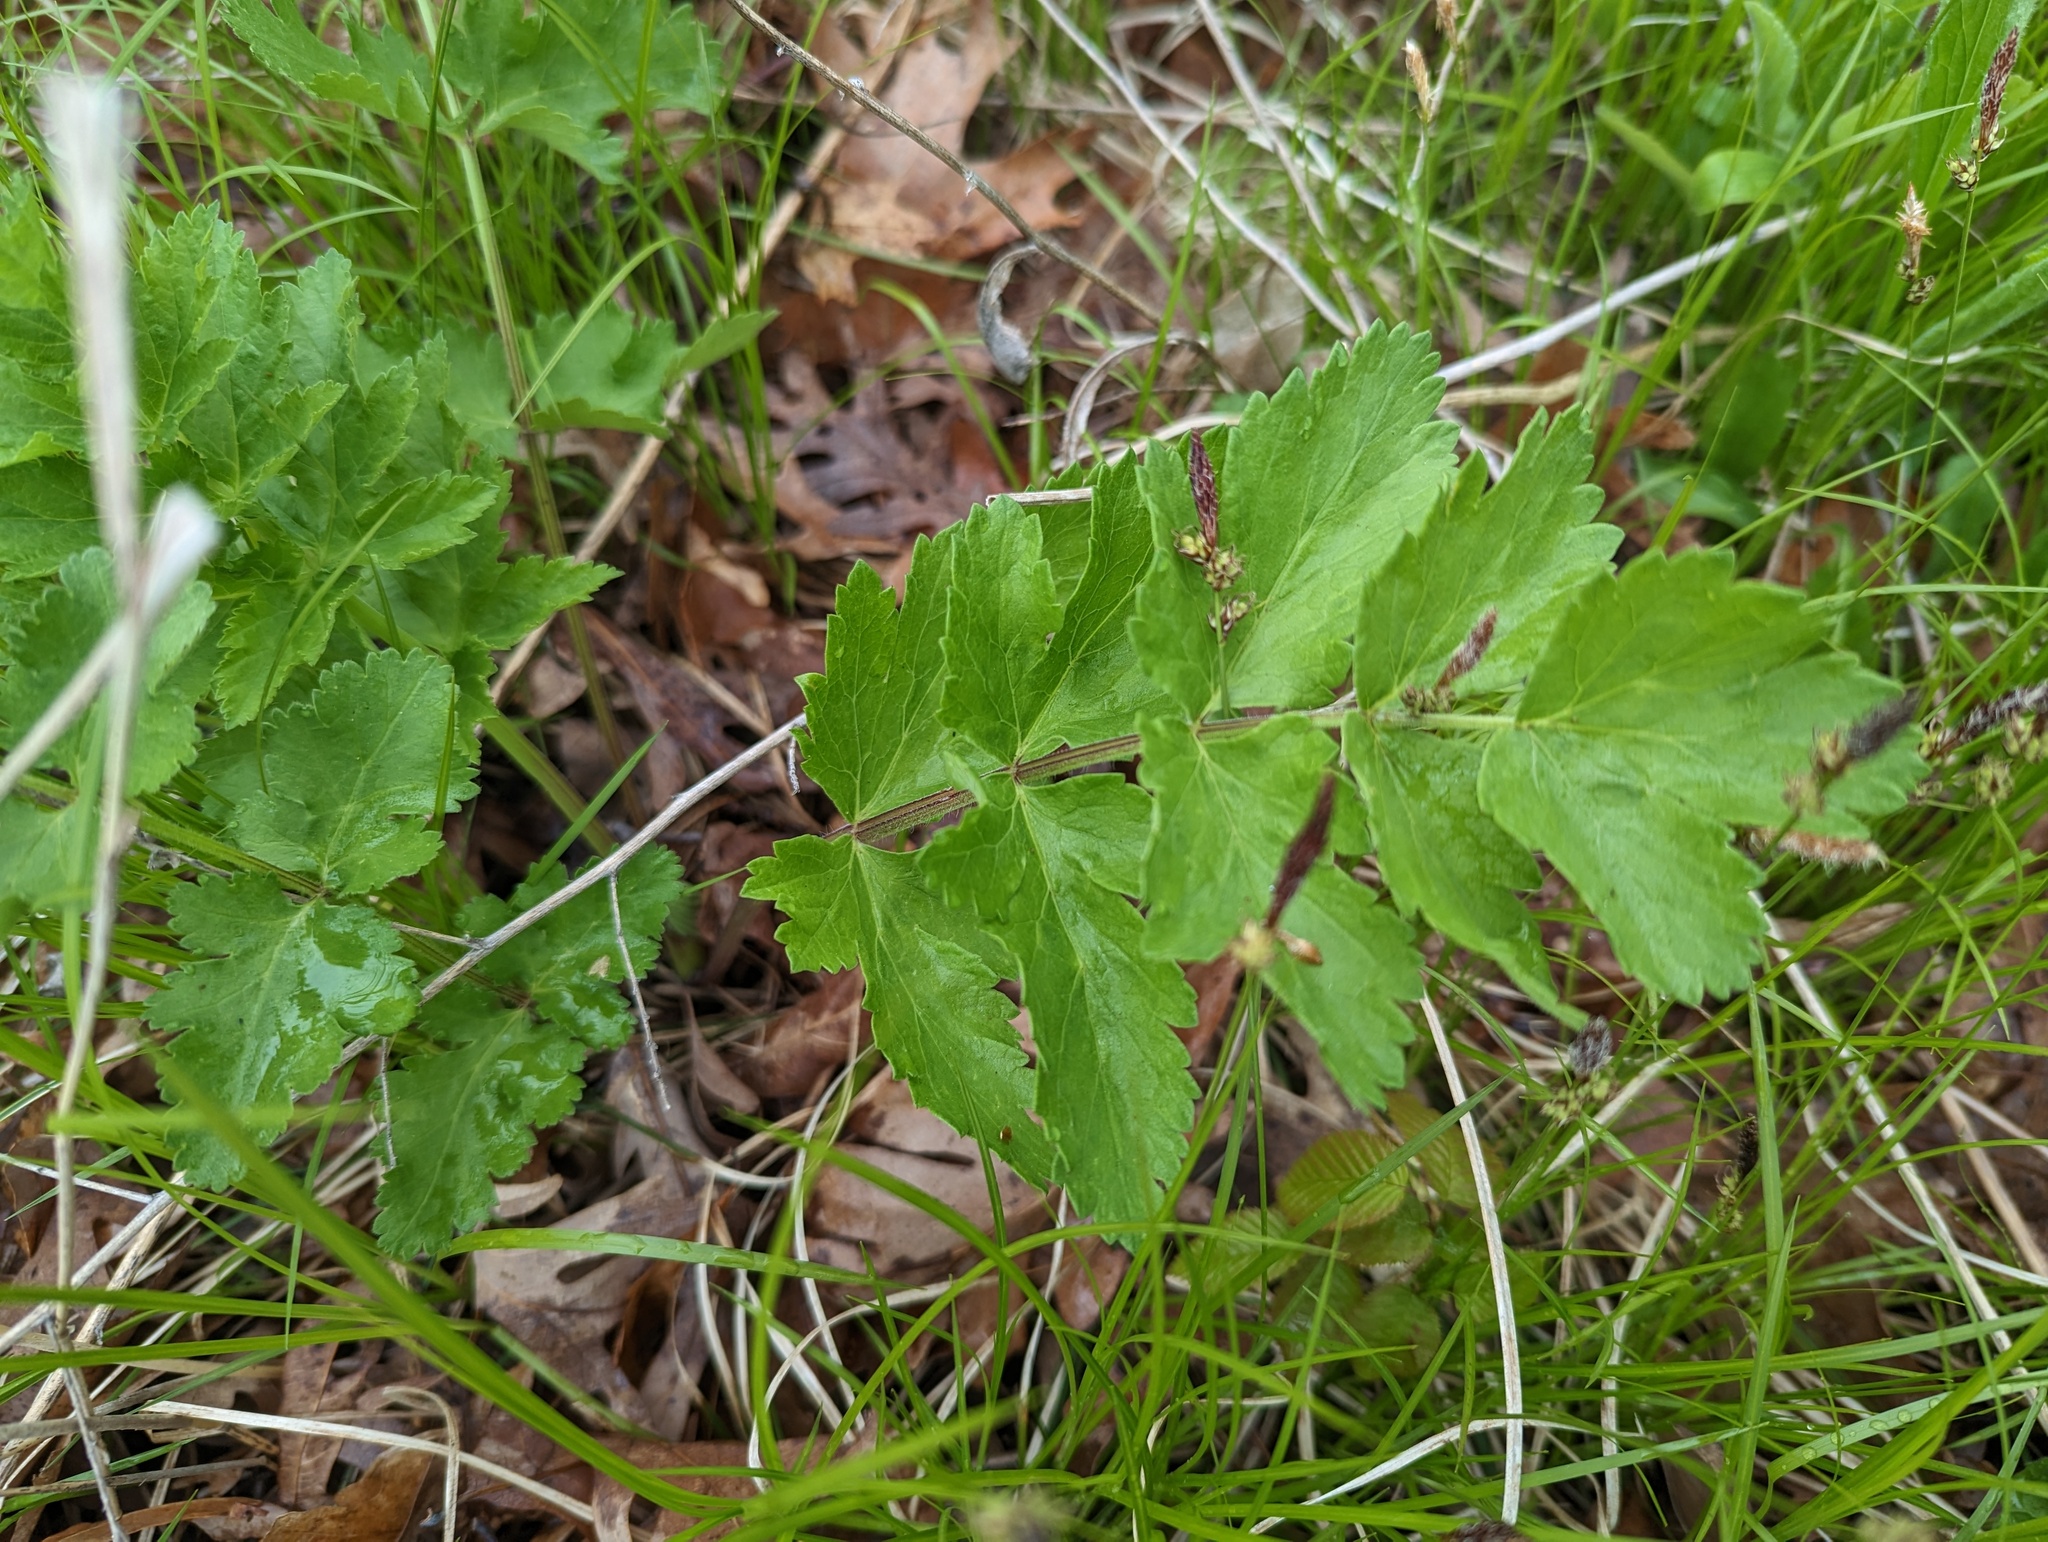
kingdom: Plantae
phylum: Tracheophyta
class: Magnoliopsida
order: Apiales
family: Apiaceae
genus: Pastinaca
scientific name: Pastinaca sativa
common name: Wild parsnip
